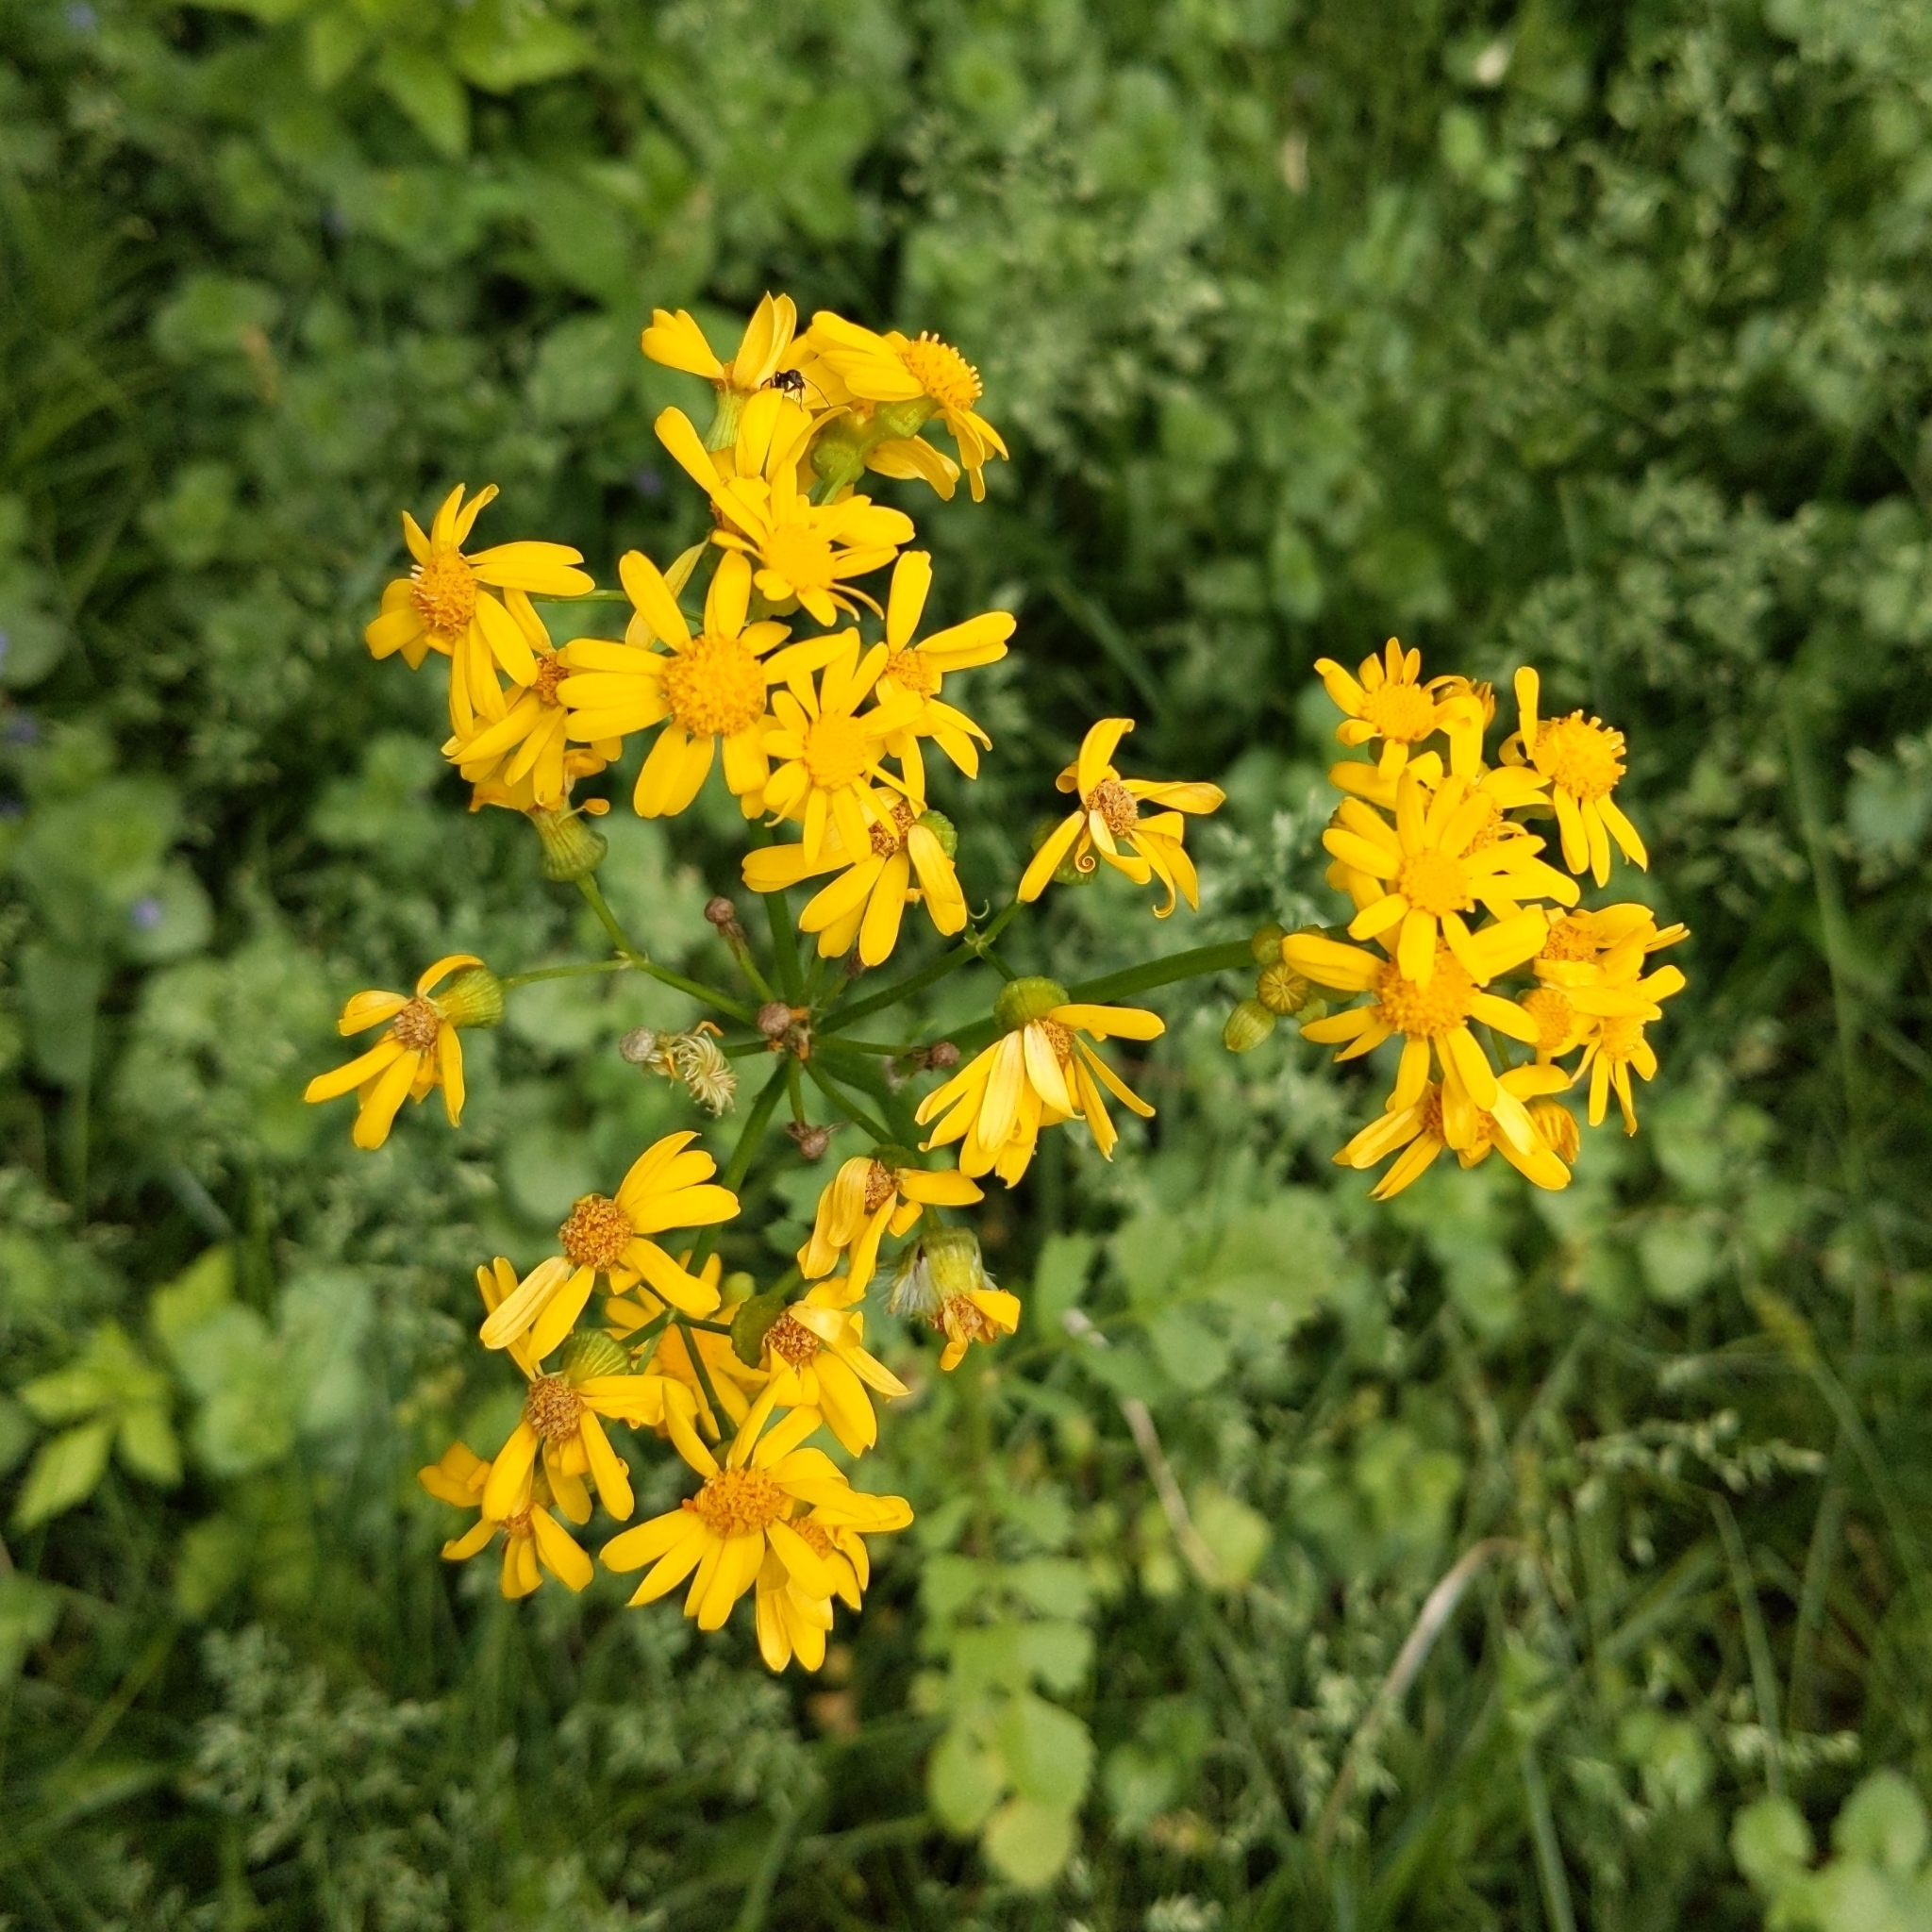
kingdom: Plantae
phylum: Tracheophyta
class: Magnoliopsida
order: Asterales
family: Asteraceae
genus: Packera
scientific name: Packera glabella
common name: Butterweed
